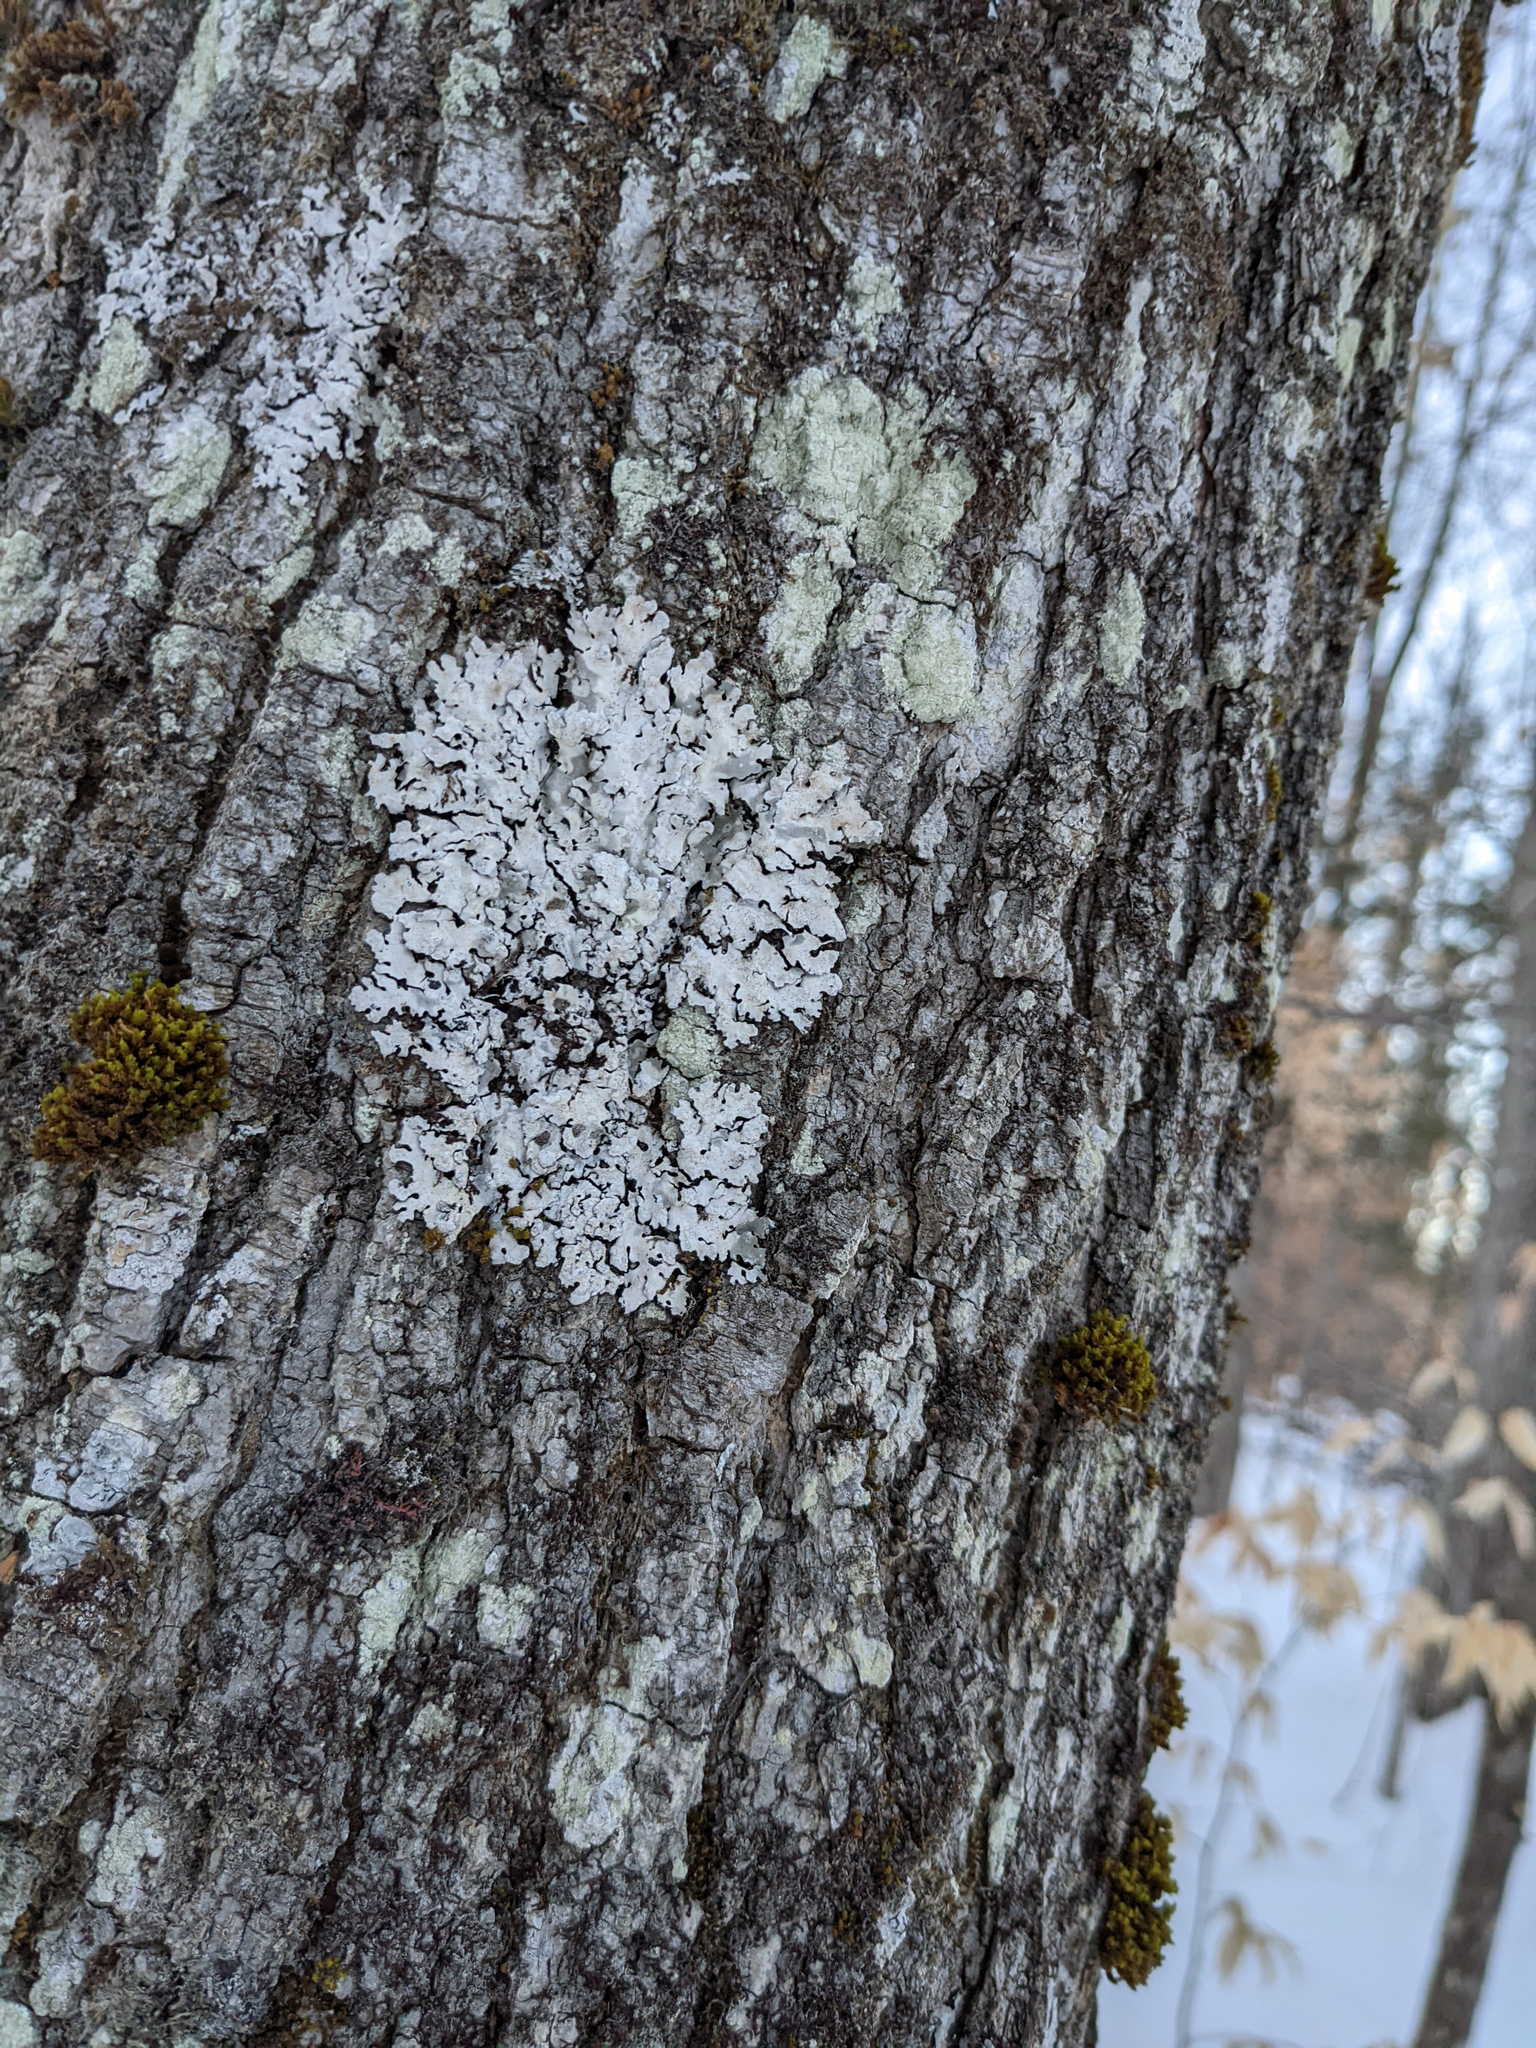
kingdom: Plantae
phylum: Bryophyta
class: Bryopsida
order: Orthotrichales
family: Orthotrichaceae
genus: Ulota
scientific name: Ulota crispa
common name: Crisped pincushion moss
